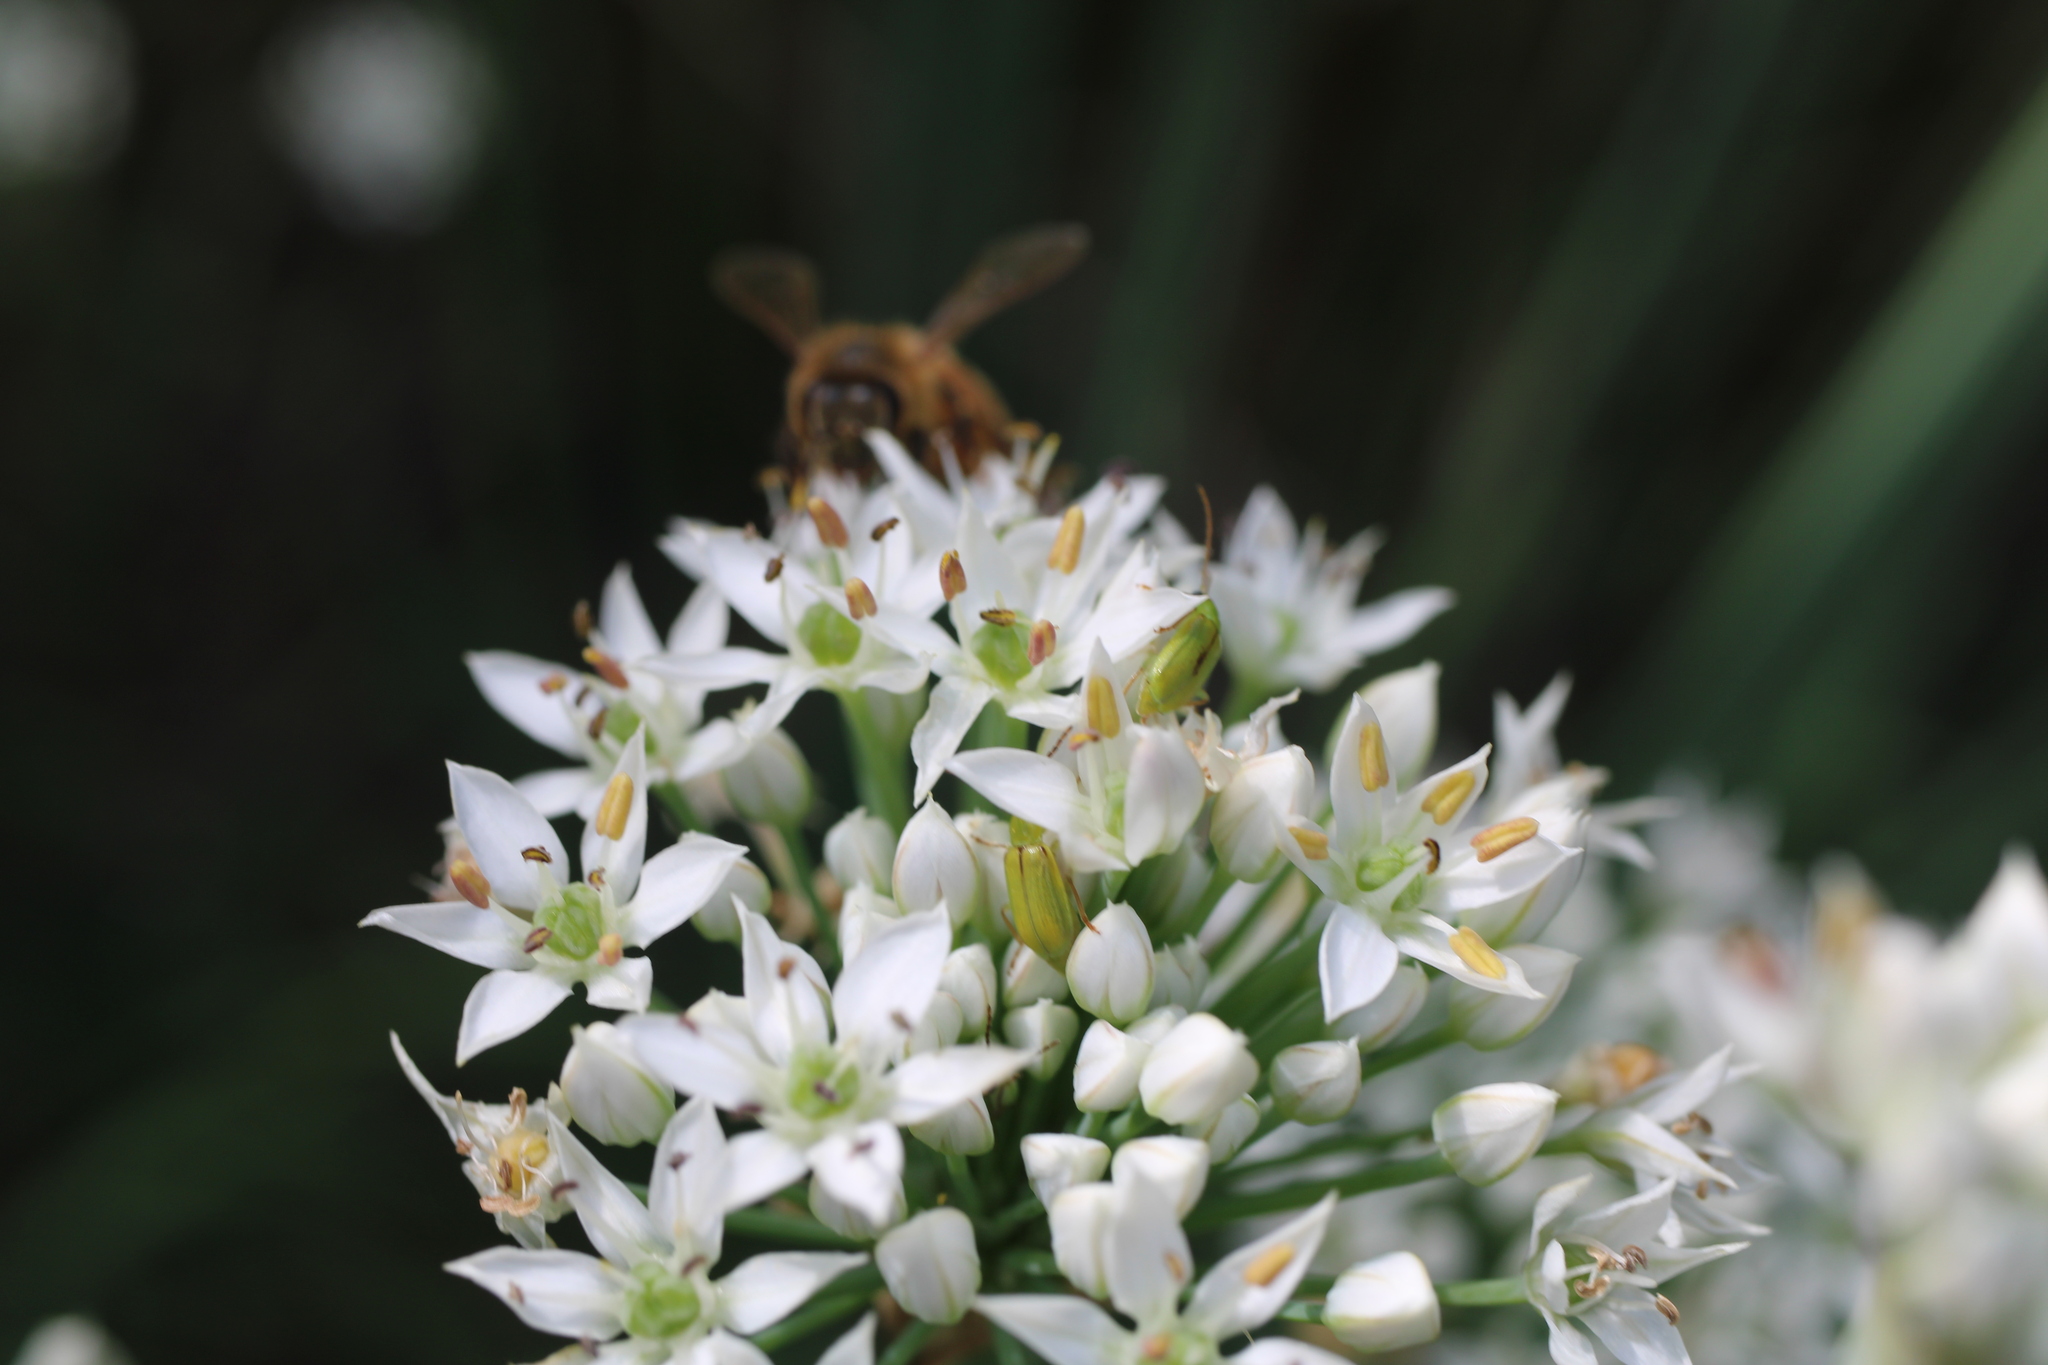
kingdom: Animalia
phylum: Arthropoda
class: Insecta
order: Coleoptera
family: Chrysomelidae
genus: Diabrotica
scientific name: Diabrotica barberi
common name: Northern corn rootworm
